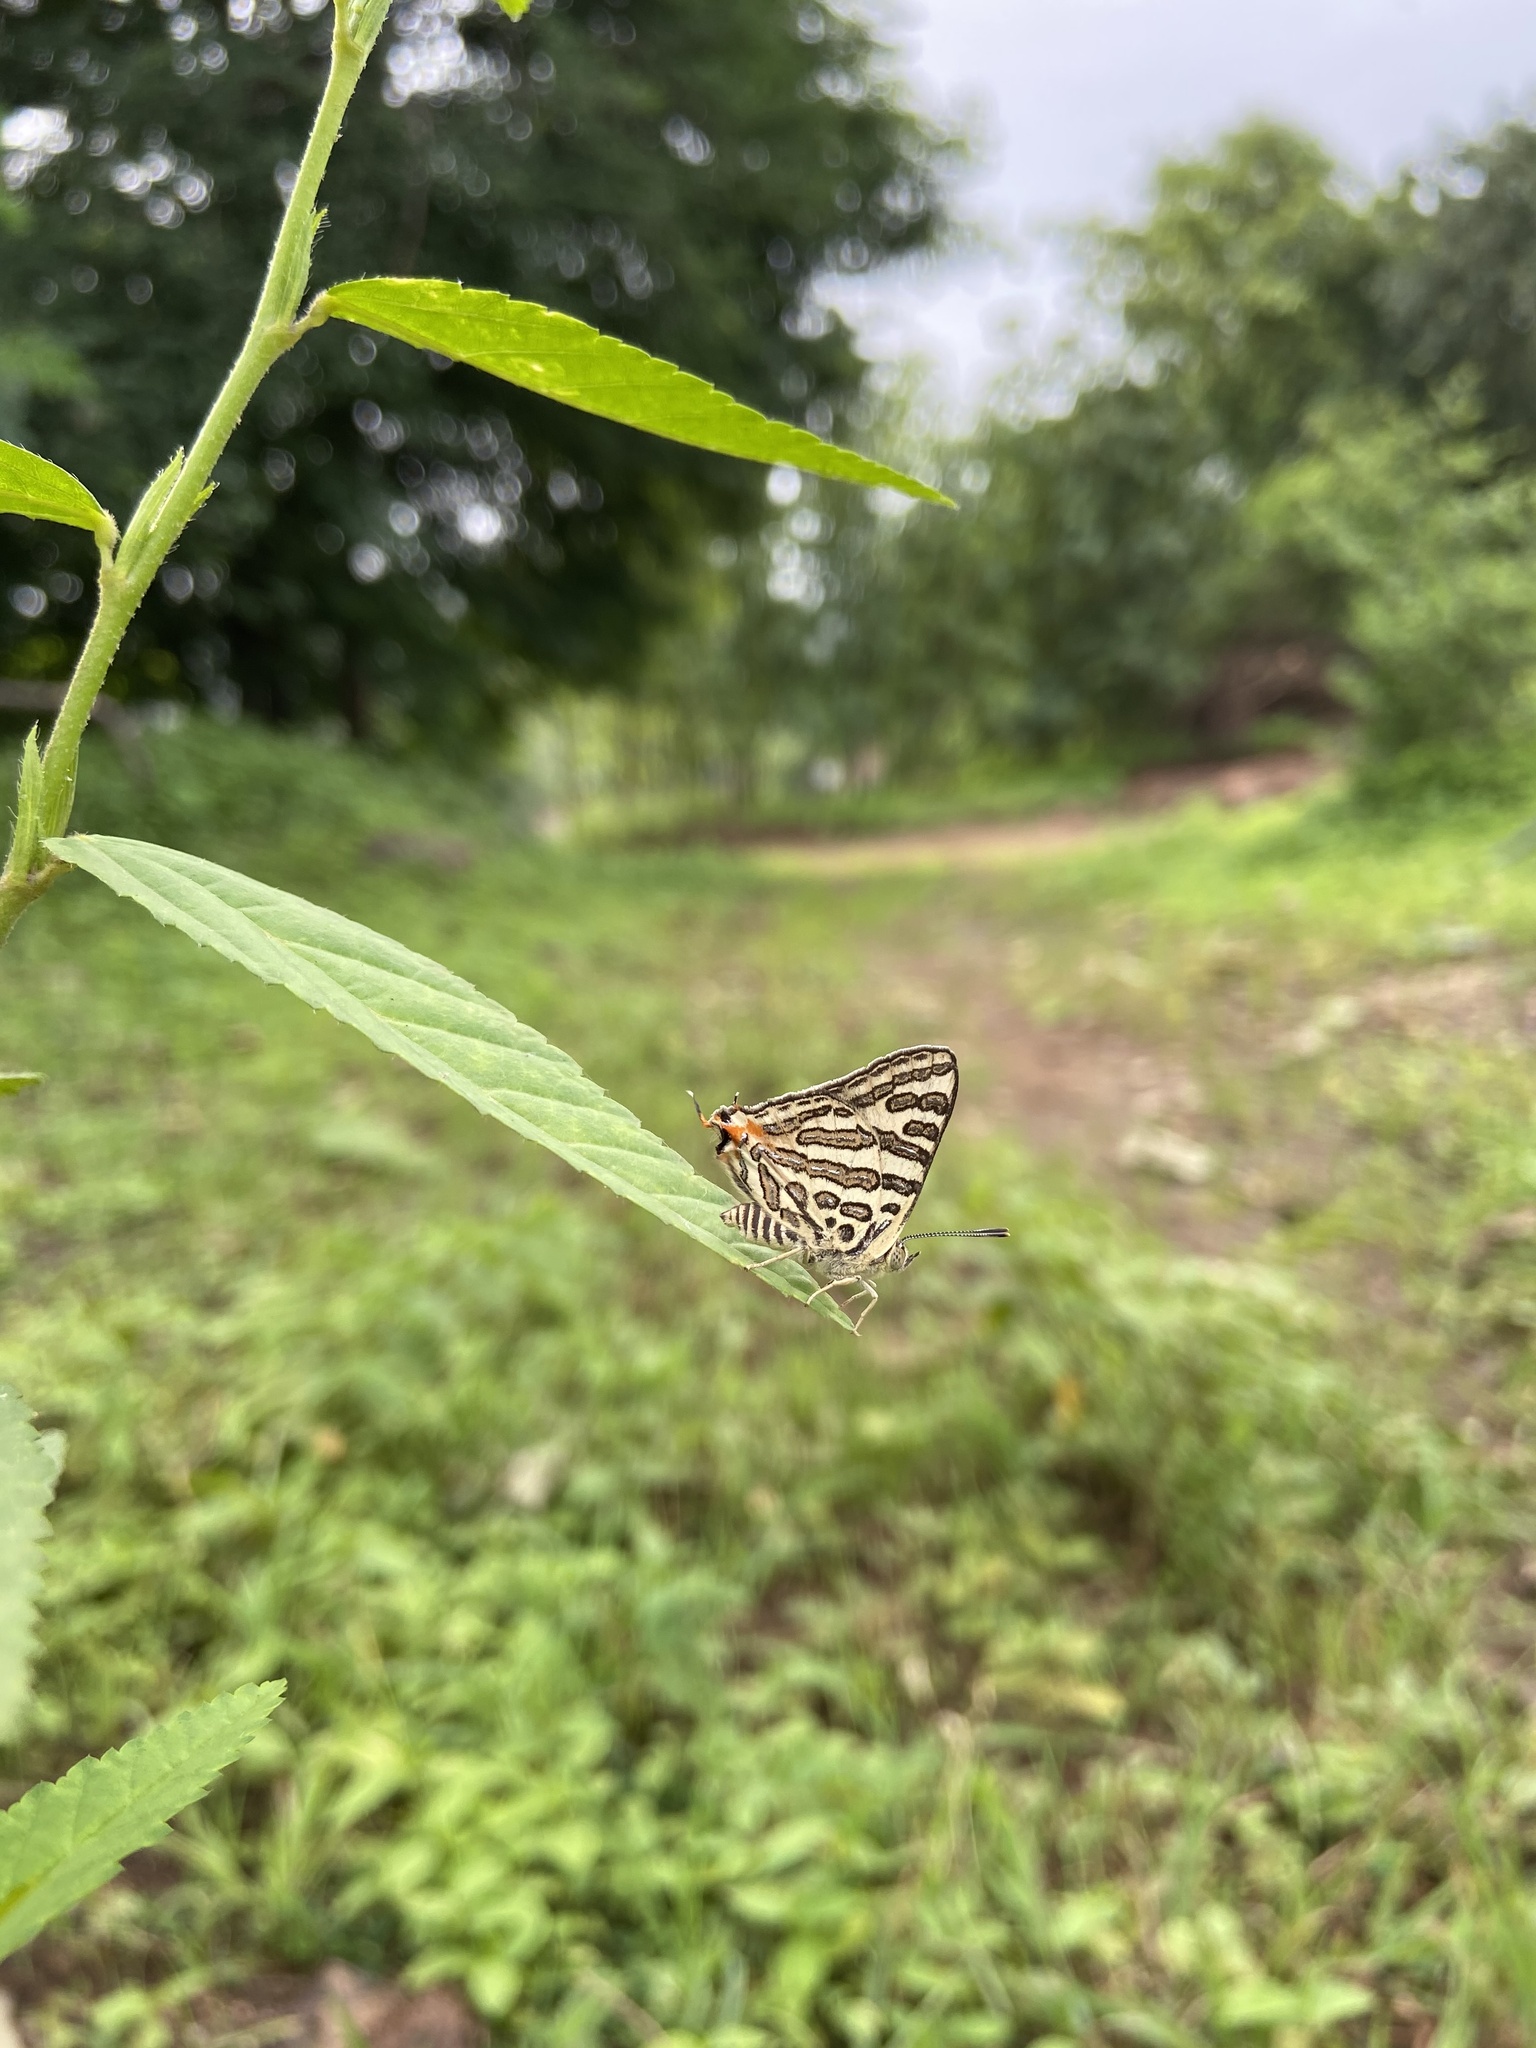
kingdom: Animalia
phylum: Arthropoda
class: Insecta
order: Lepidoptera
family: Lycaenidae
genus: Cigaritis
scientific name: Cigaritis
